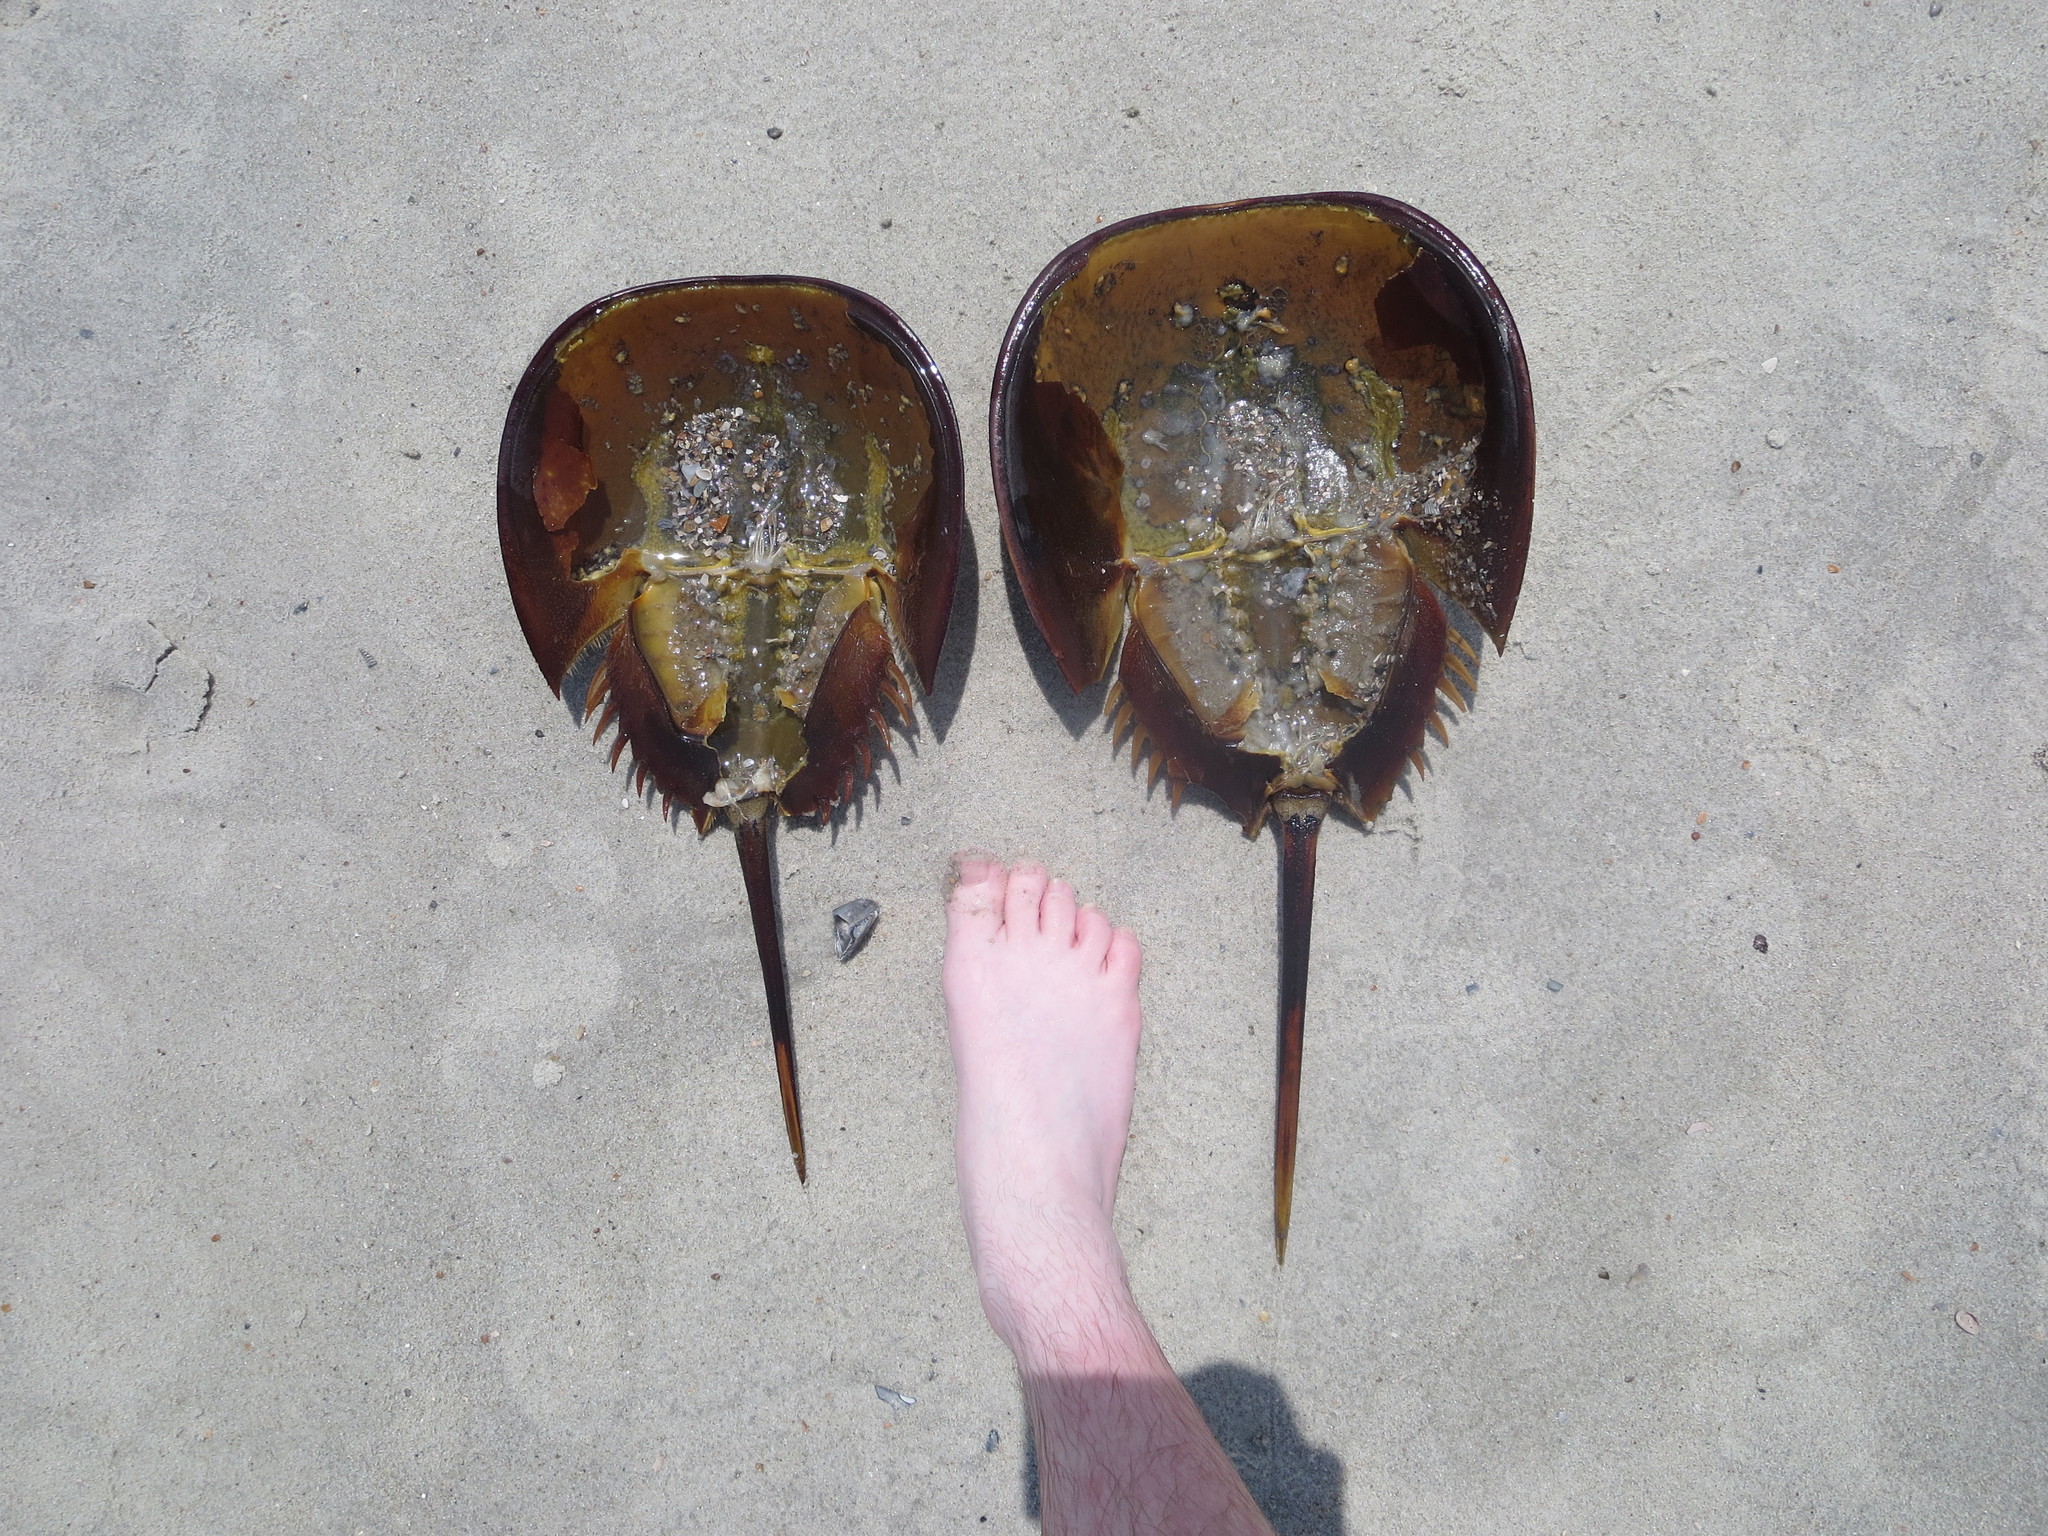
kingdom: Animalia
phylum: Arthropoda
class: Merostomata
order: Xiphosurida
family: Limulidae
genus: Limulus
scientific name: Limulus polyphemus
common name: Horseshoe crab
